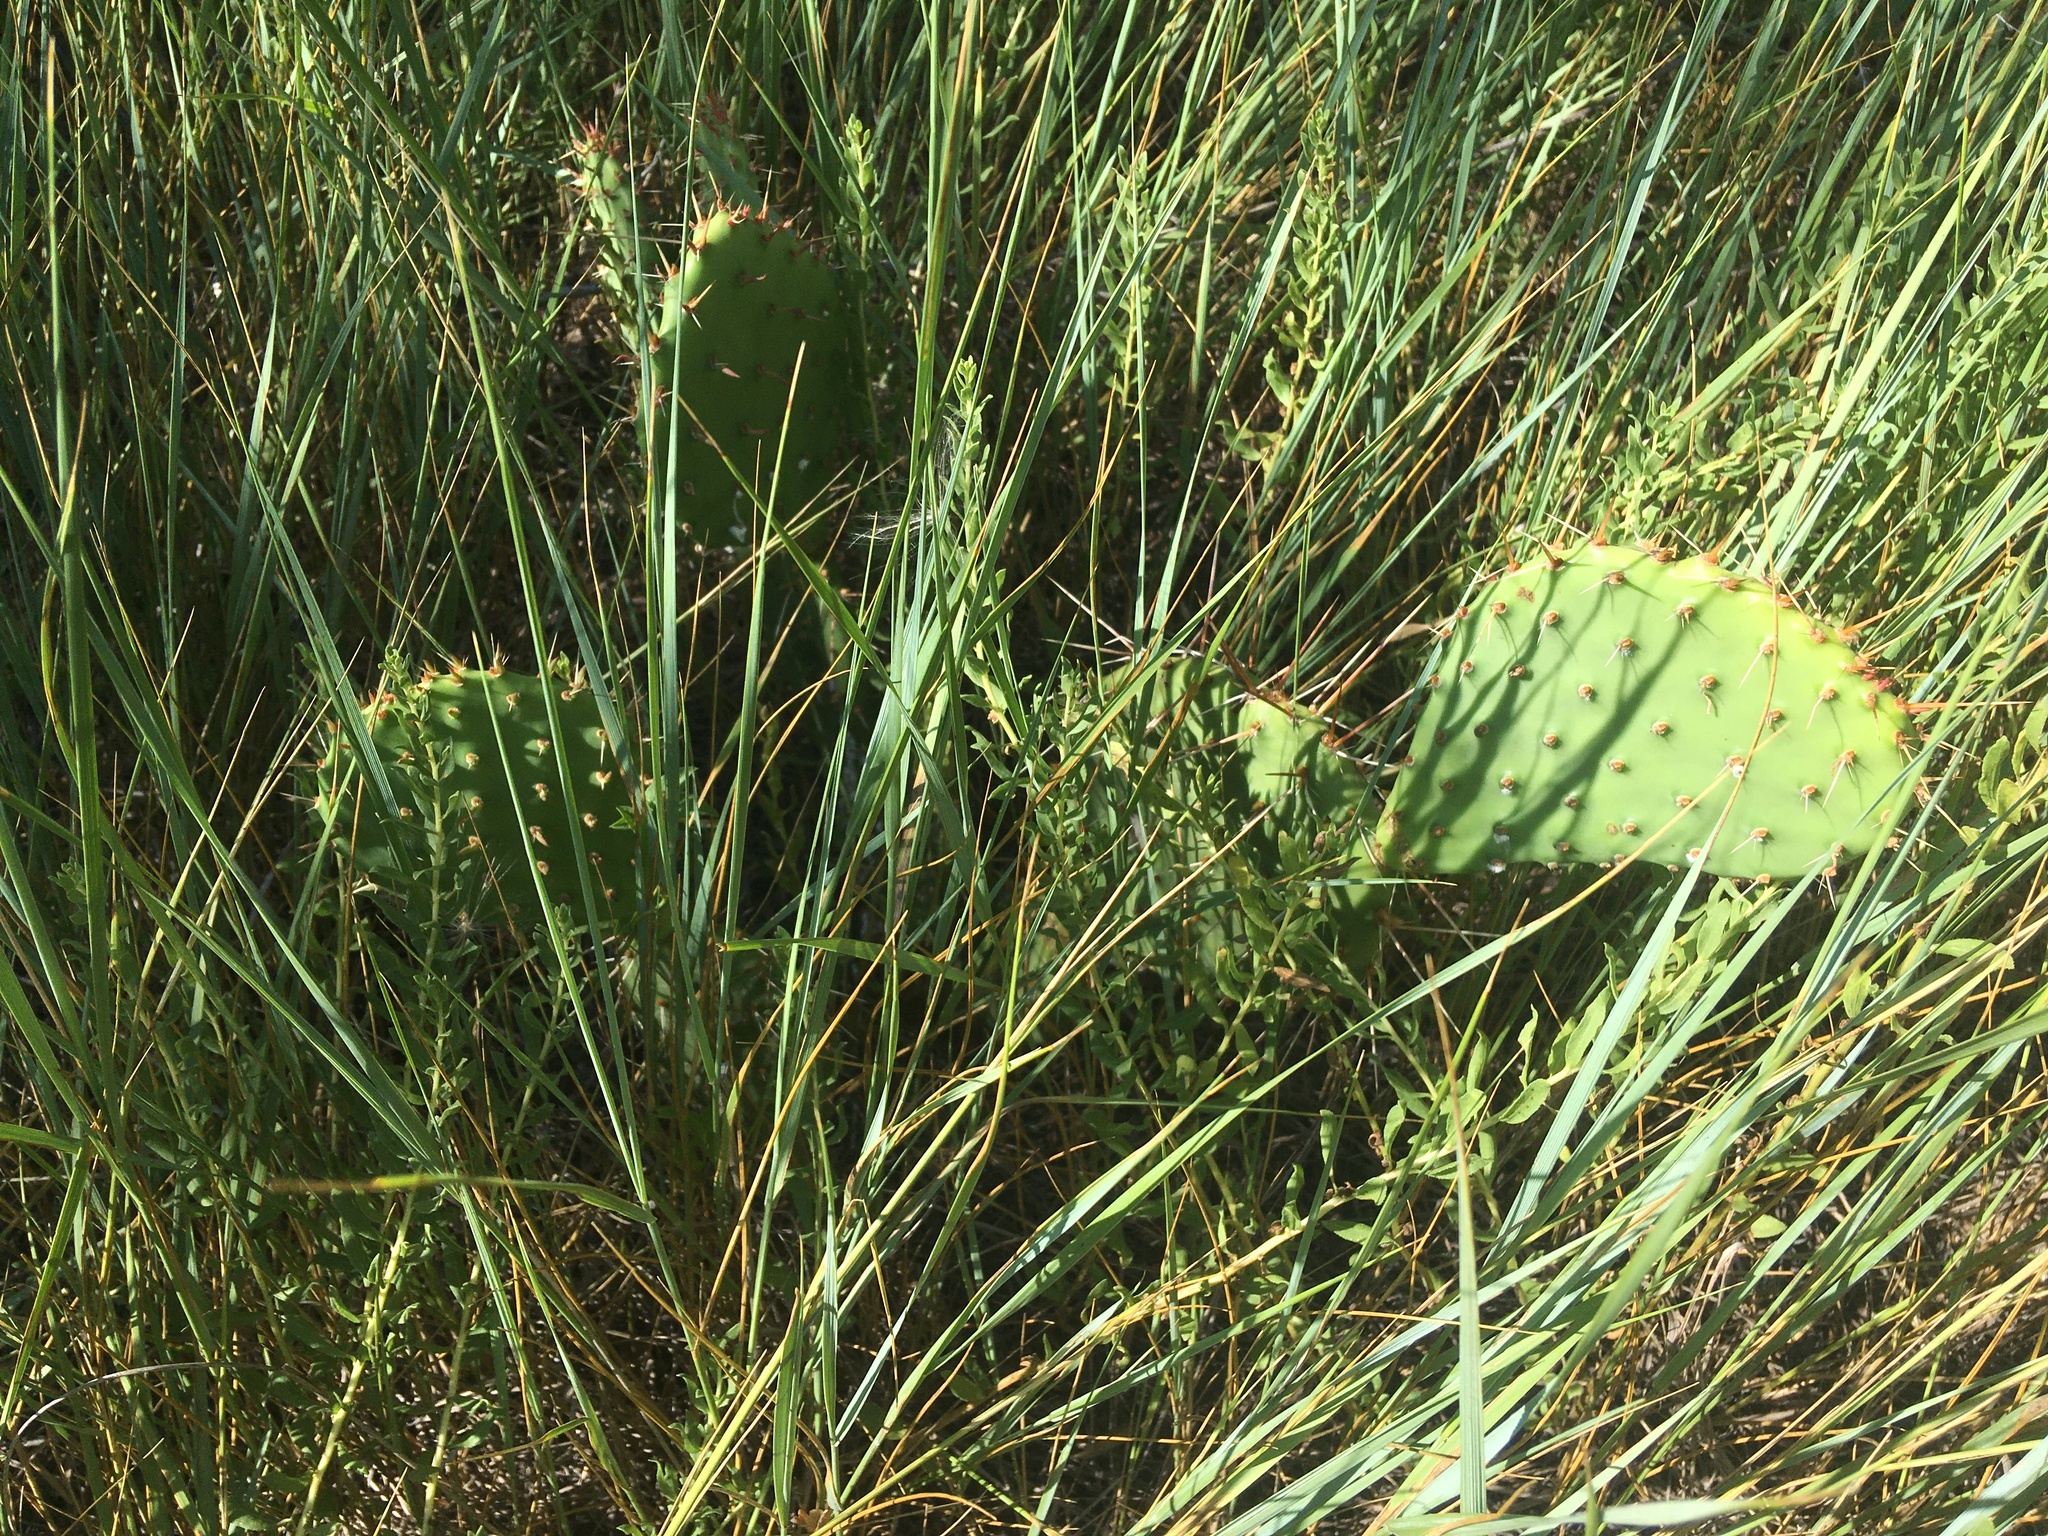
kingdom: Plantae
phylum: Tracheophyta
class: Magnoliopsida
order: Caryophyllales
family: Cactaceae
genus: Opuntia
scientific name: Opuntia cymochila
